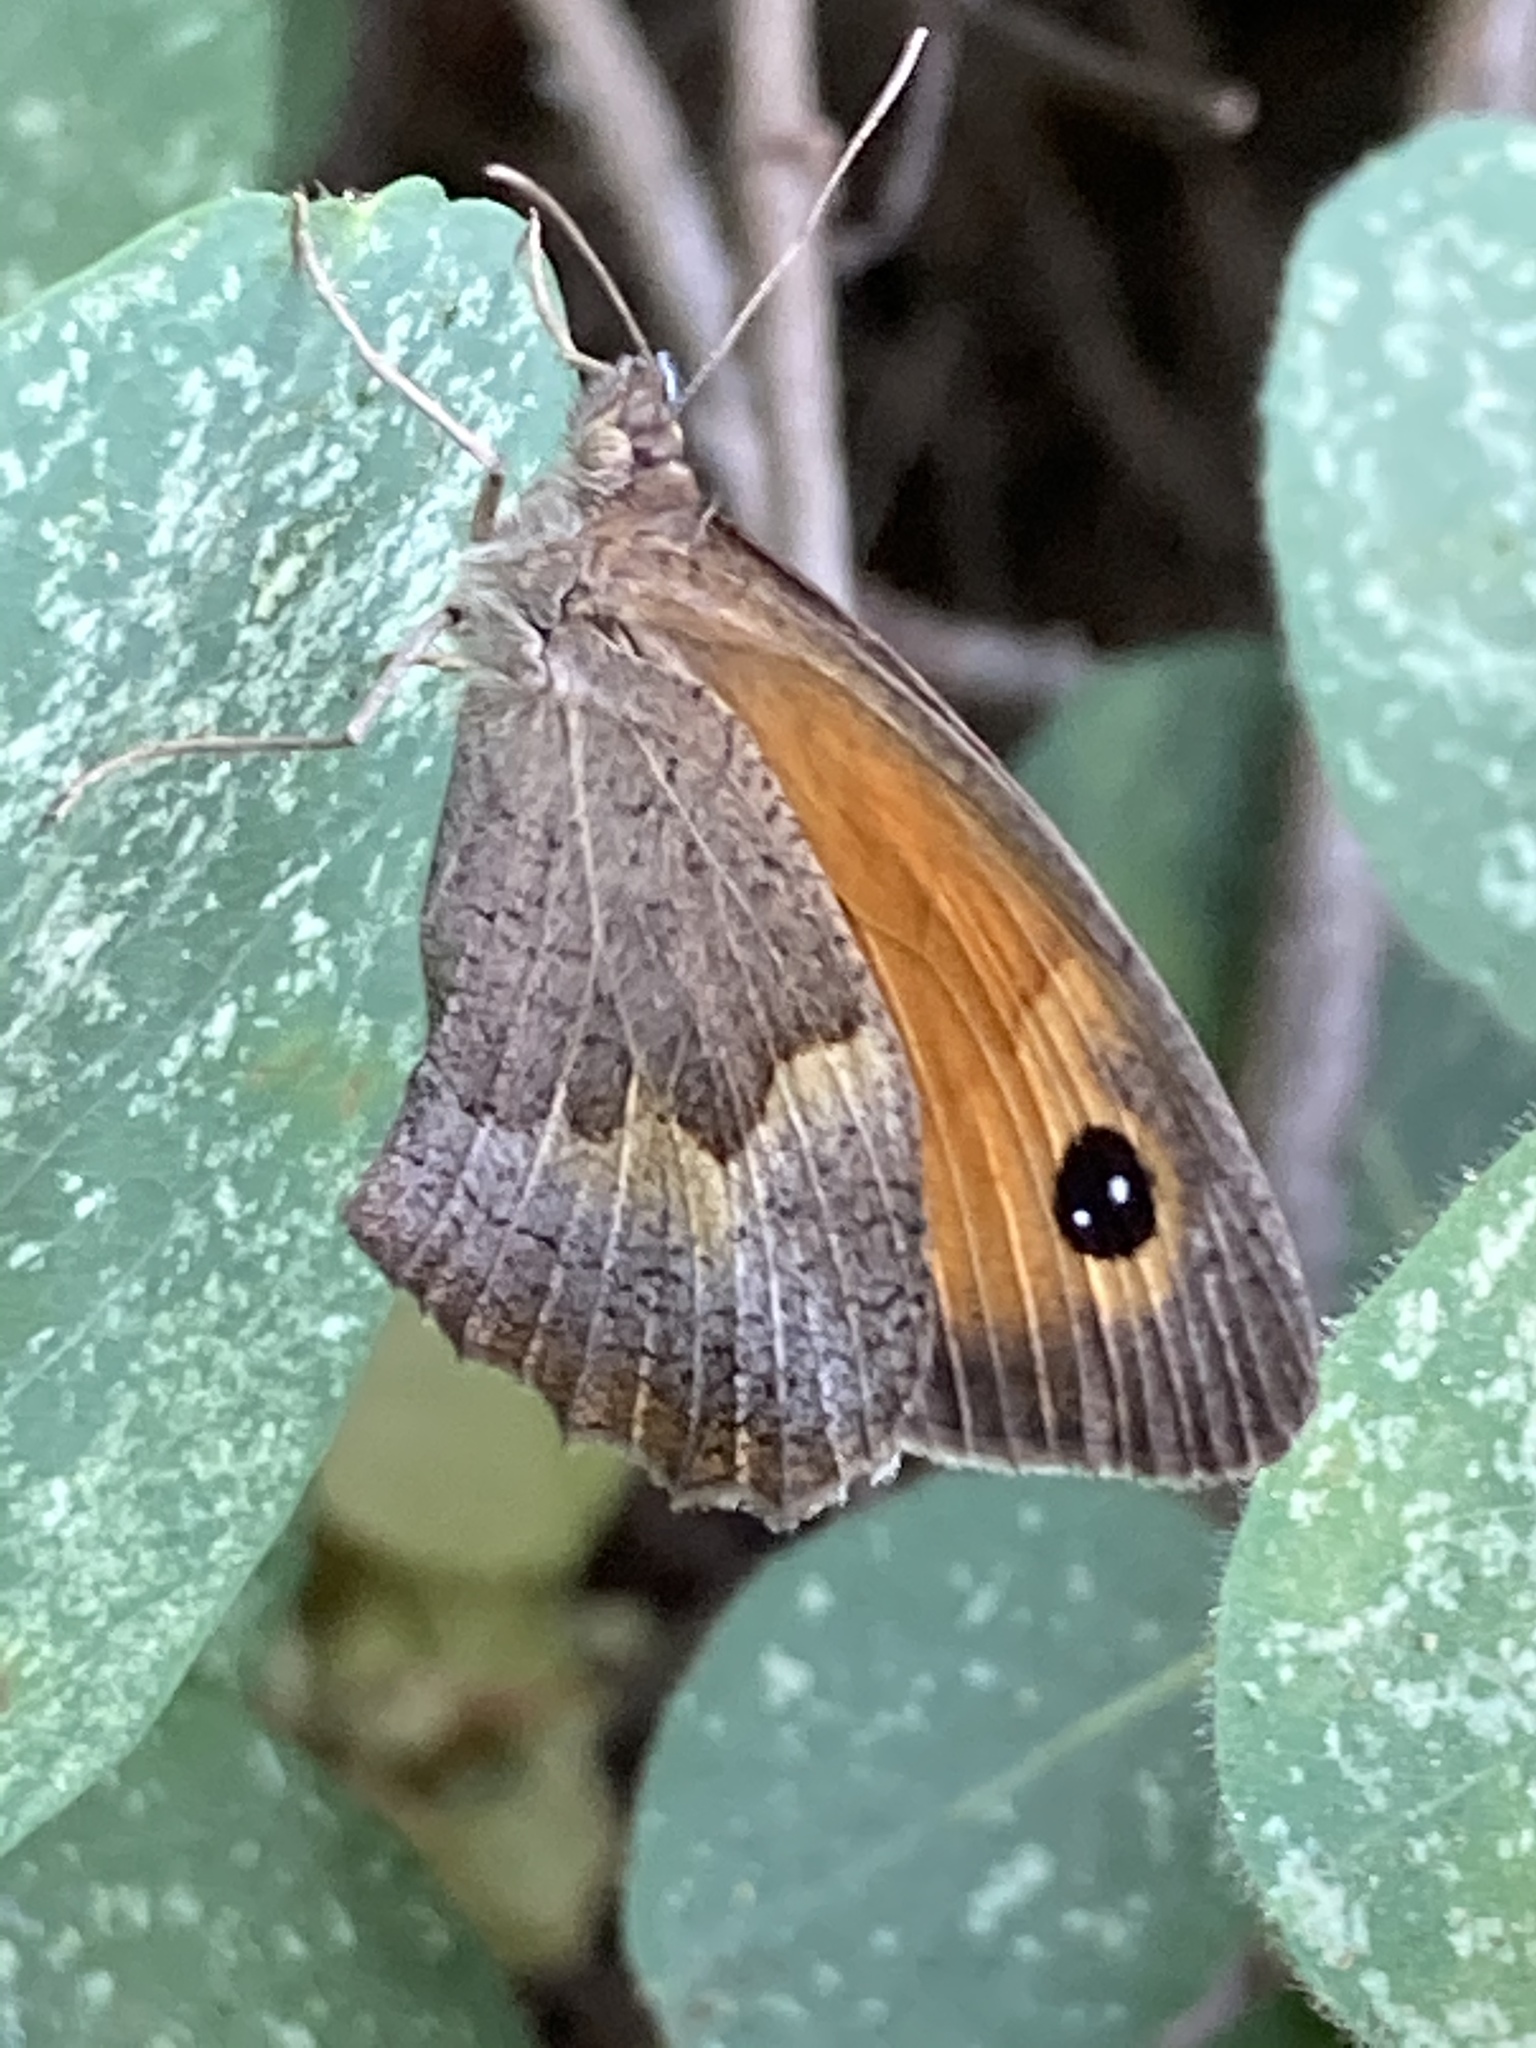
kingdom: Animalia
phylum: Arthropoda
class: Insecta
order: Lepidoptera
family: Nymphalidae
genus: Maniola
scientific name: Maniola telmessia
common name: Persian meadow brown
